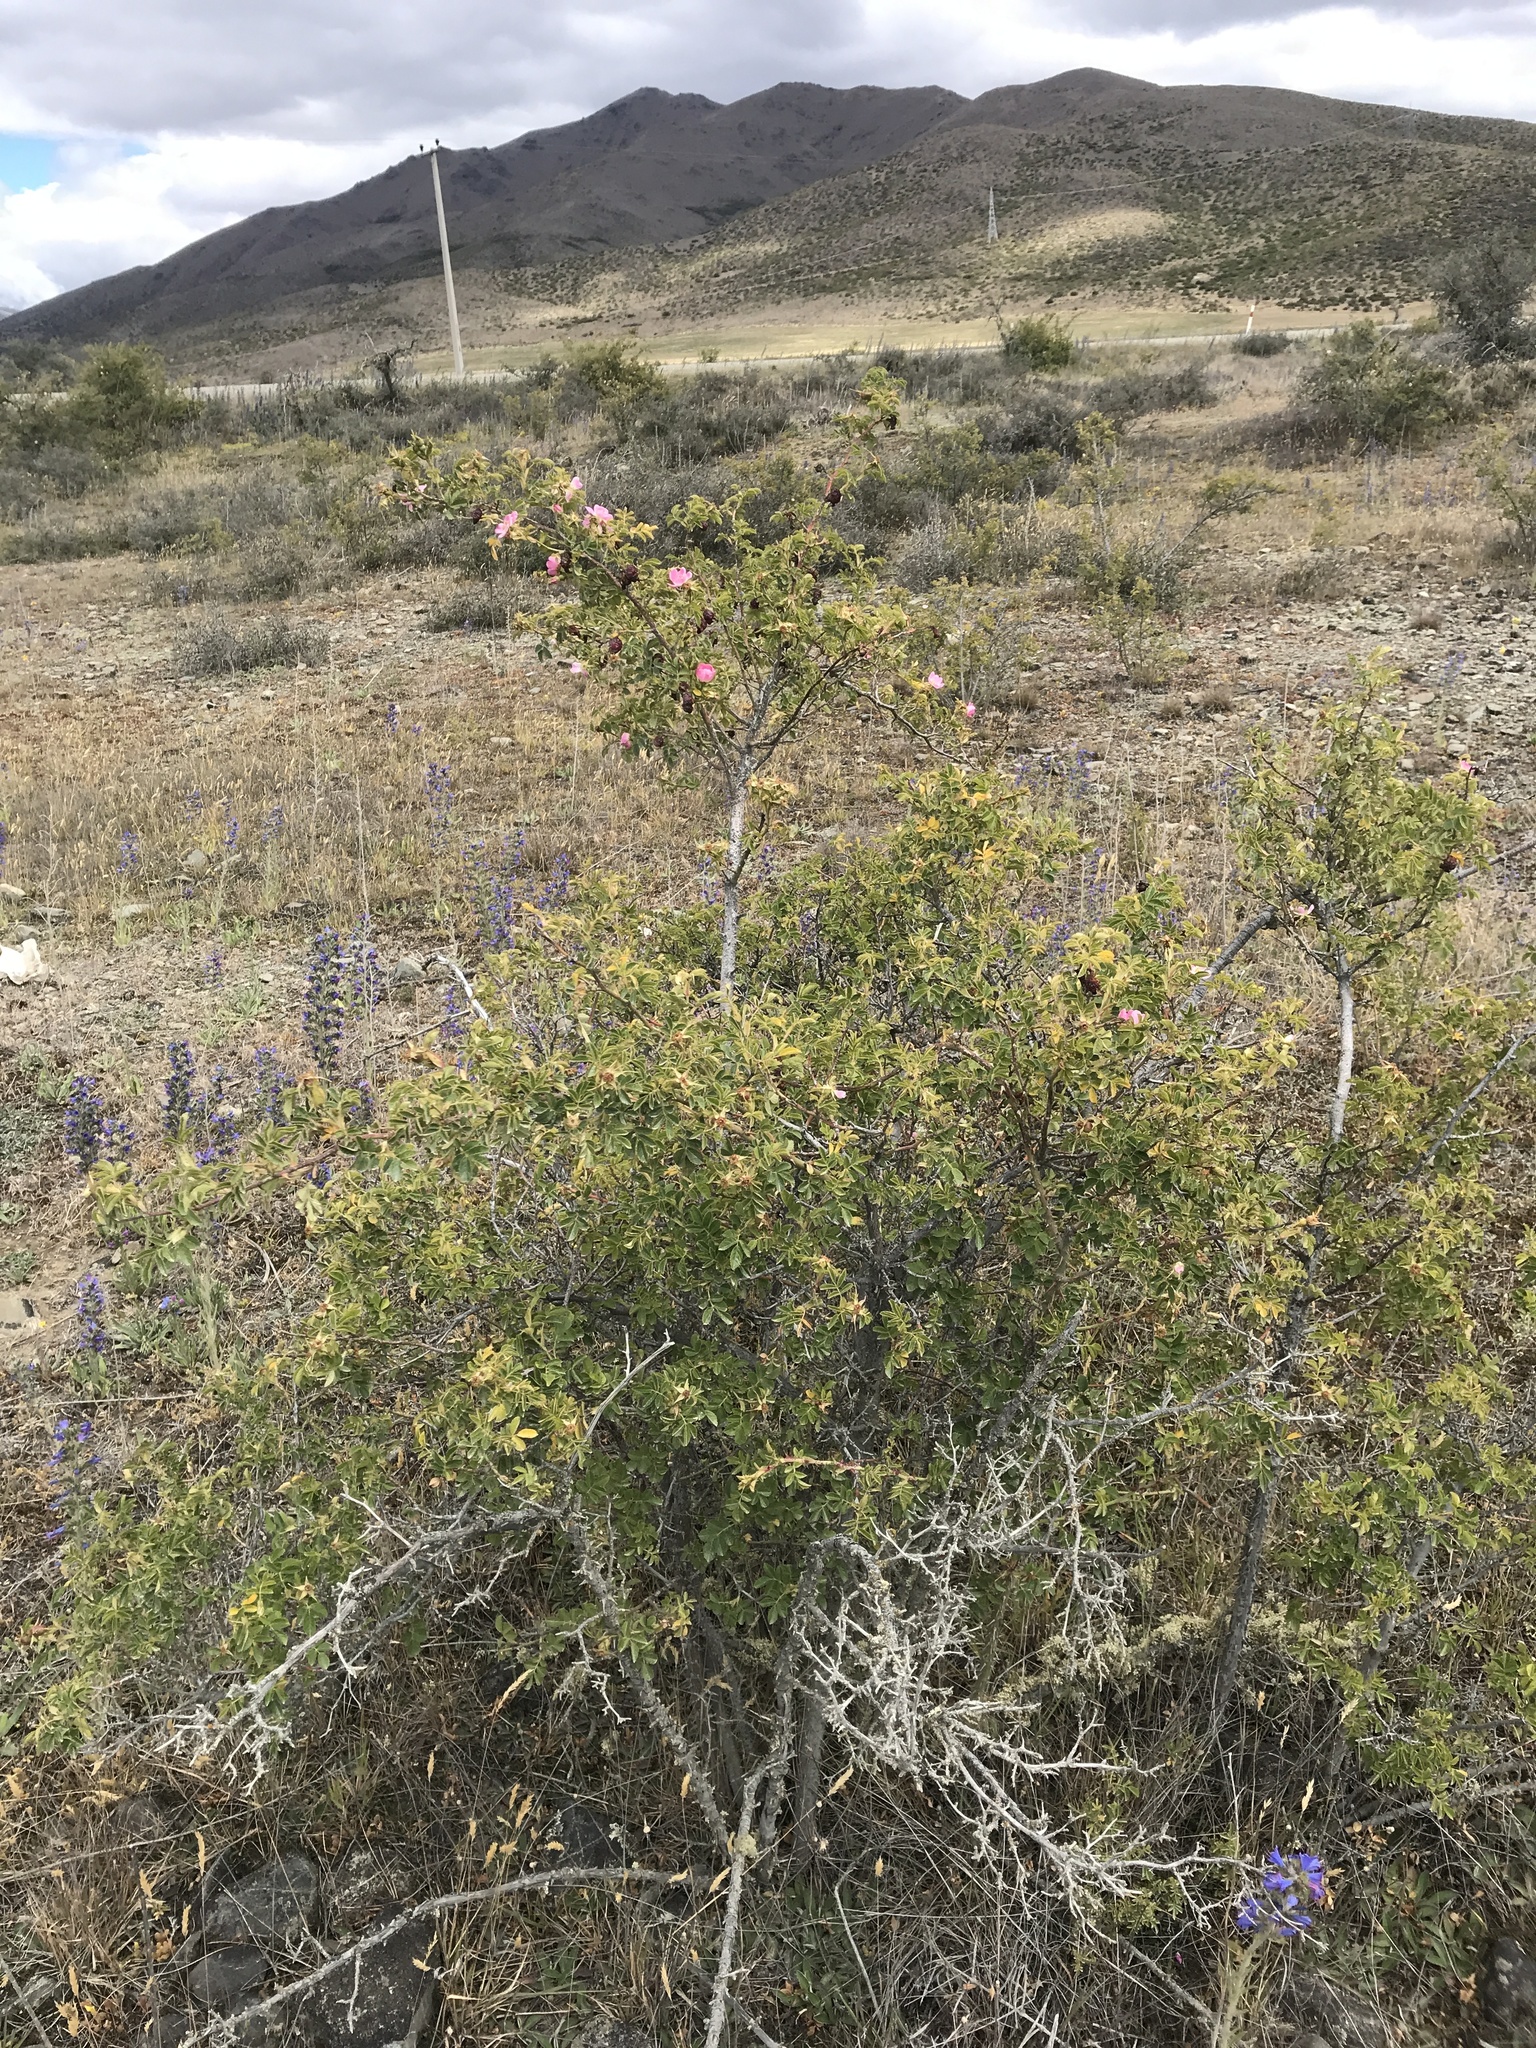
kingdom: Plantae
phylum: Tracheophyta
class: Magnoliopsida
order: Rosales
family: Rosaceae
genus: Rosa
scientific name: Rosa rubiginosa
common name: Sweet-briar
